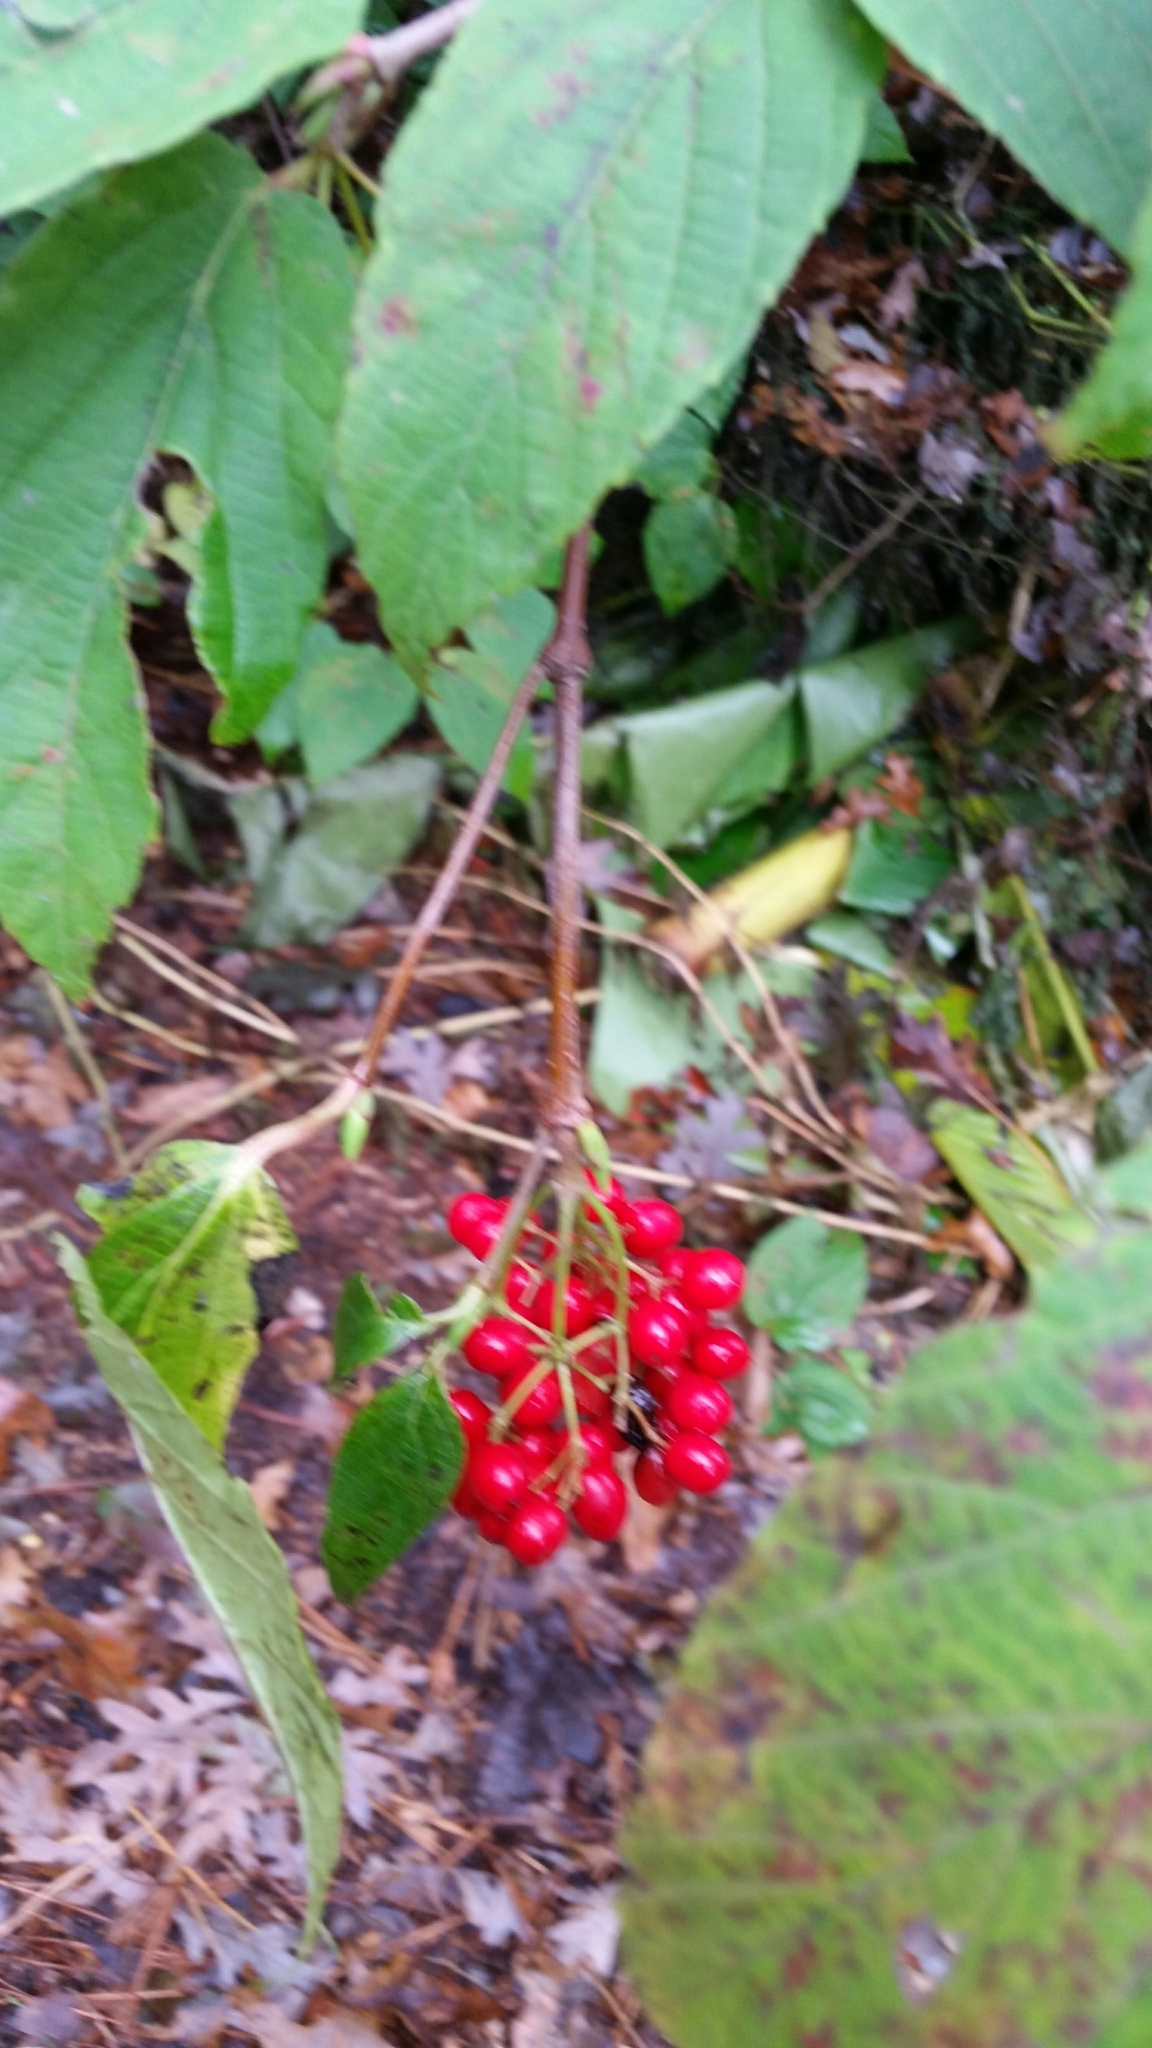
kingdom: Plantae
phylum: Tracheophyta
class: Magnoliopsida
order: Dipsacales
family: Viburnaceae
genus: Viburnum
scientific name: Viburnum setigerum
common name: Tea viburnum
